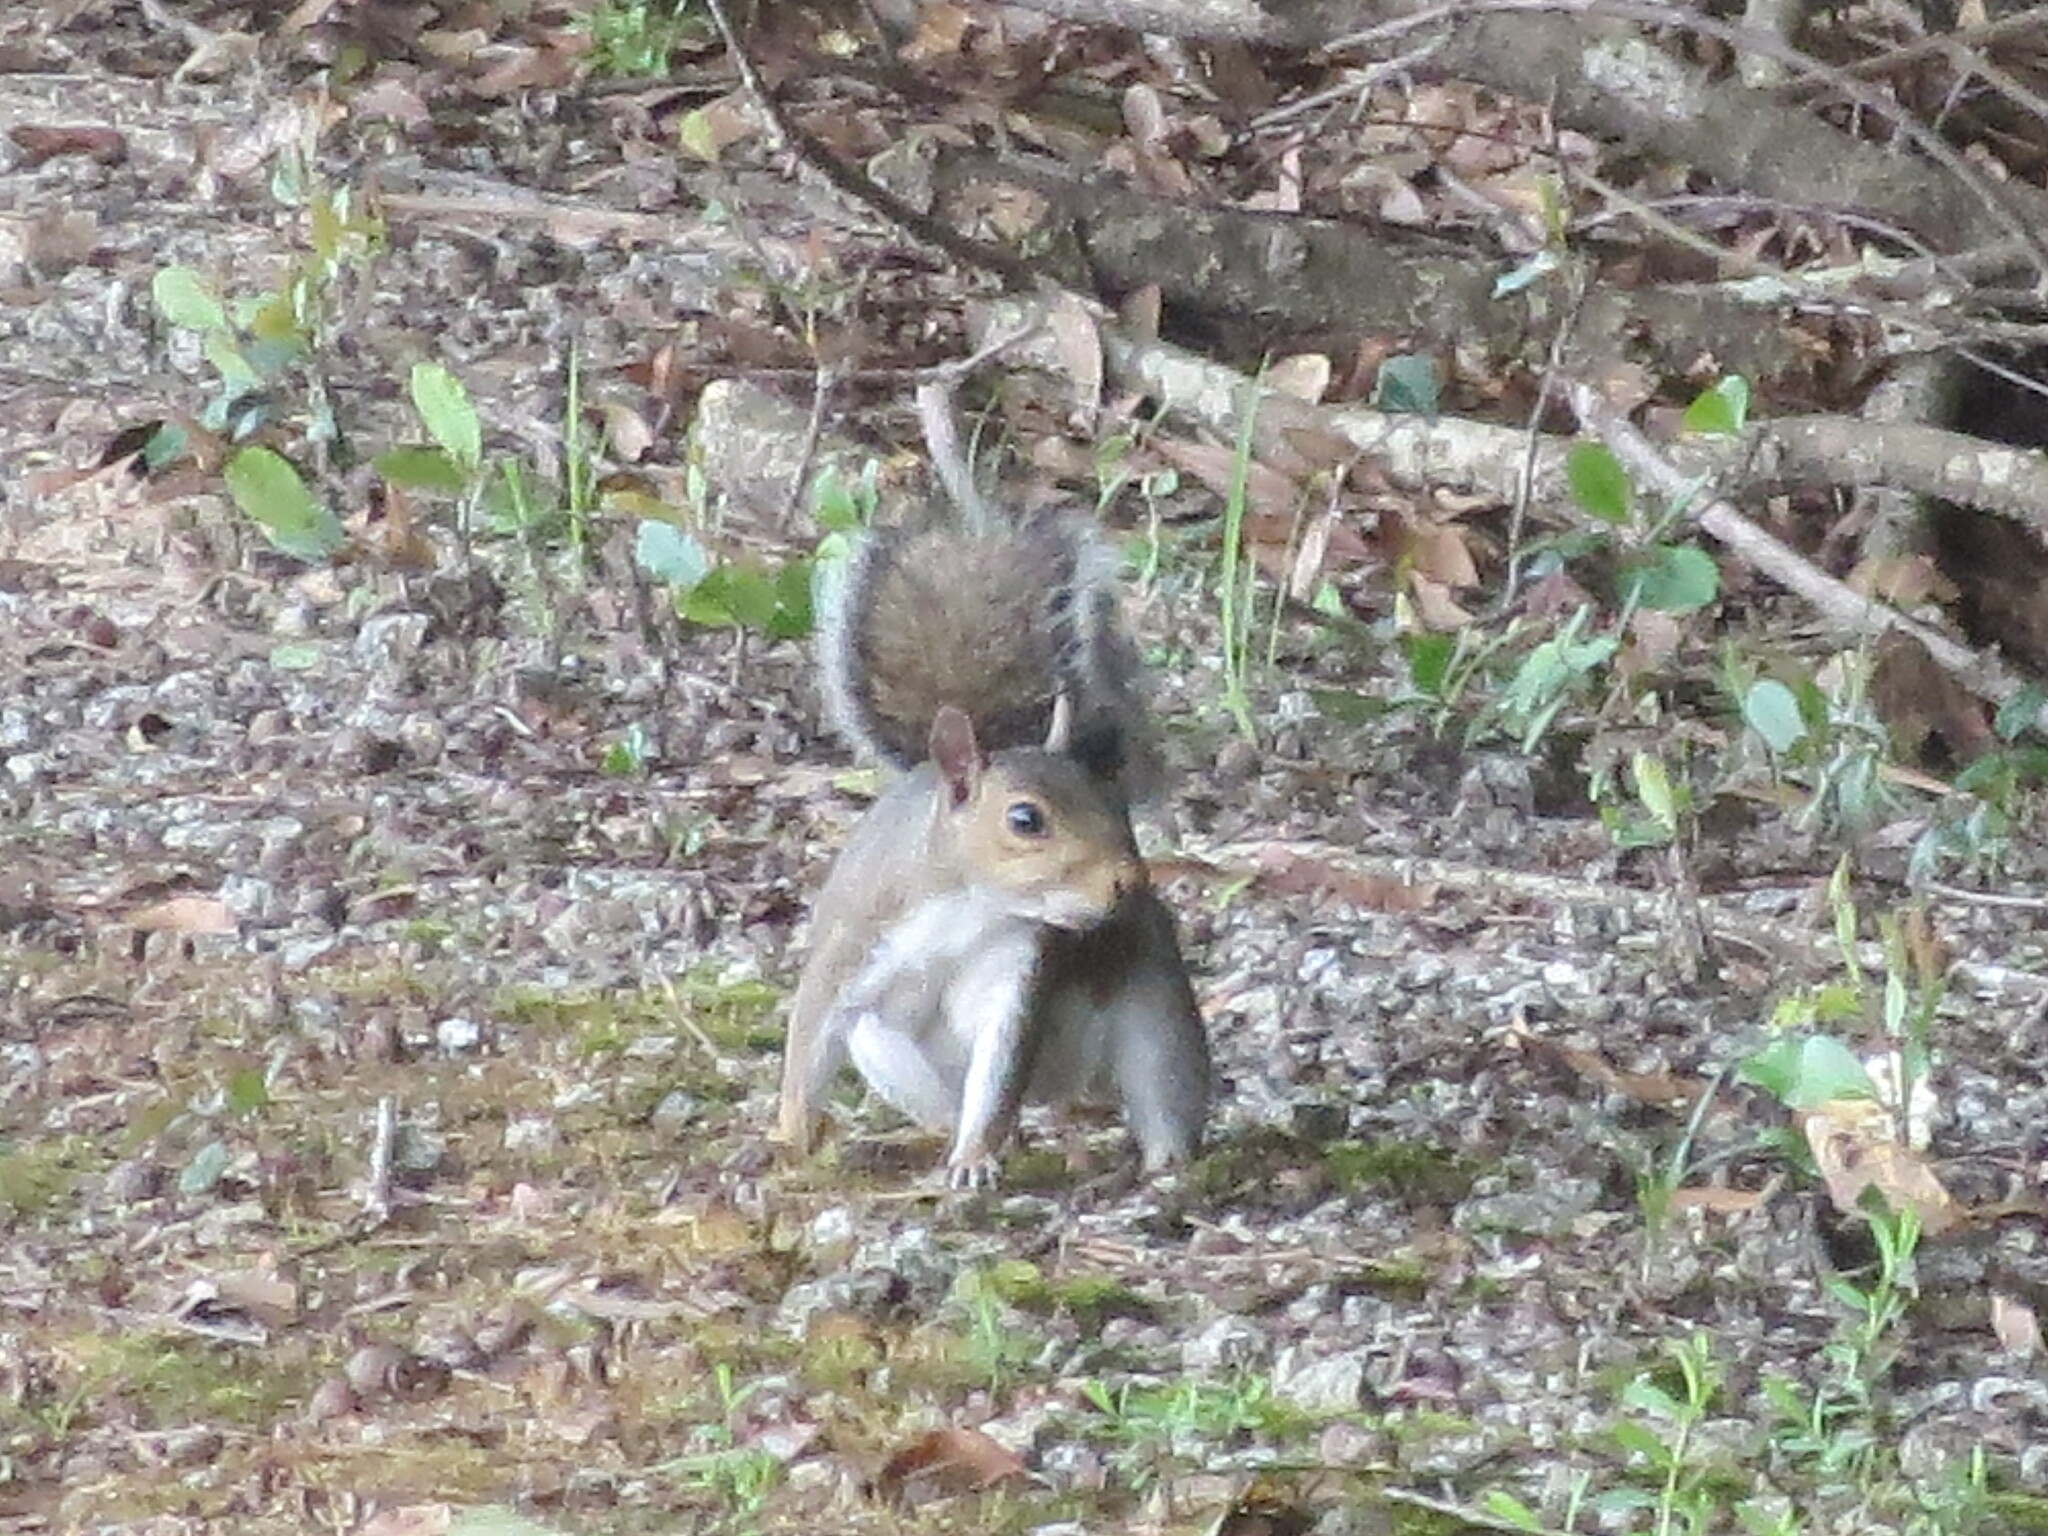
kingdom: Animalia
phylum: Chordata
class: Mammalia
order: Rodentia
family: Sciuridae
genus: Sciurus
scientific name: Sciurus carolinensis
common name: Eastern gray squirrel
